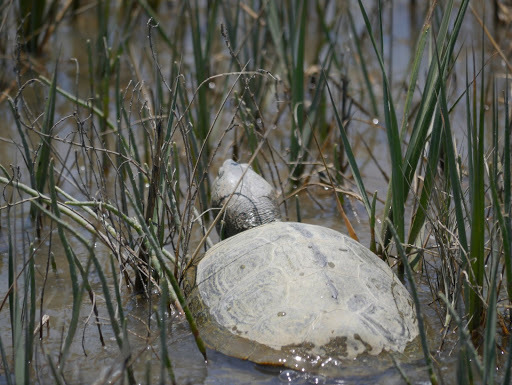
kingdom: Animalia
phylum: Chordata
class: Testudines
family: Emydidae
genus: Malaclemys
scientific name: Malaclemys terrapin
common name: Diamondback terrapin
